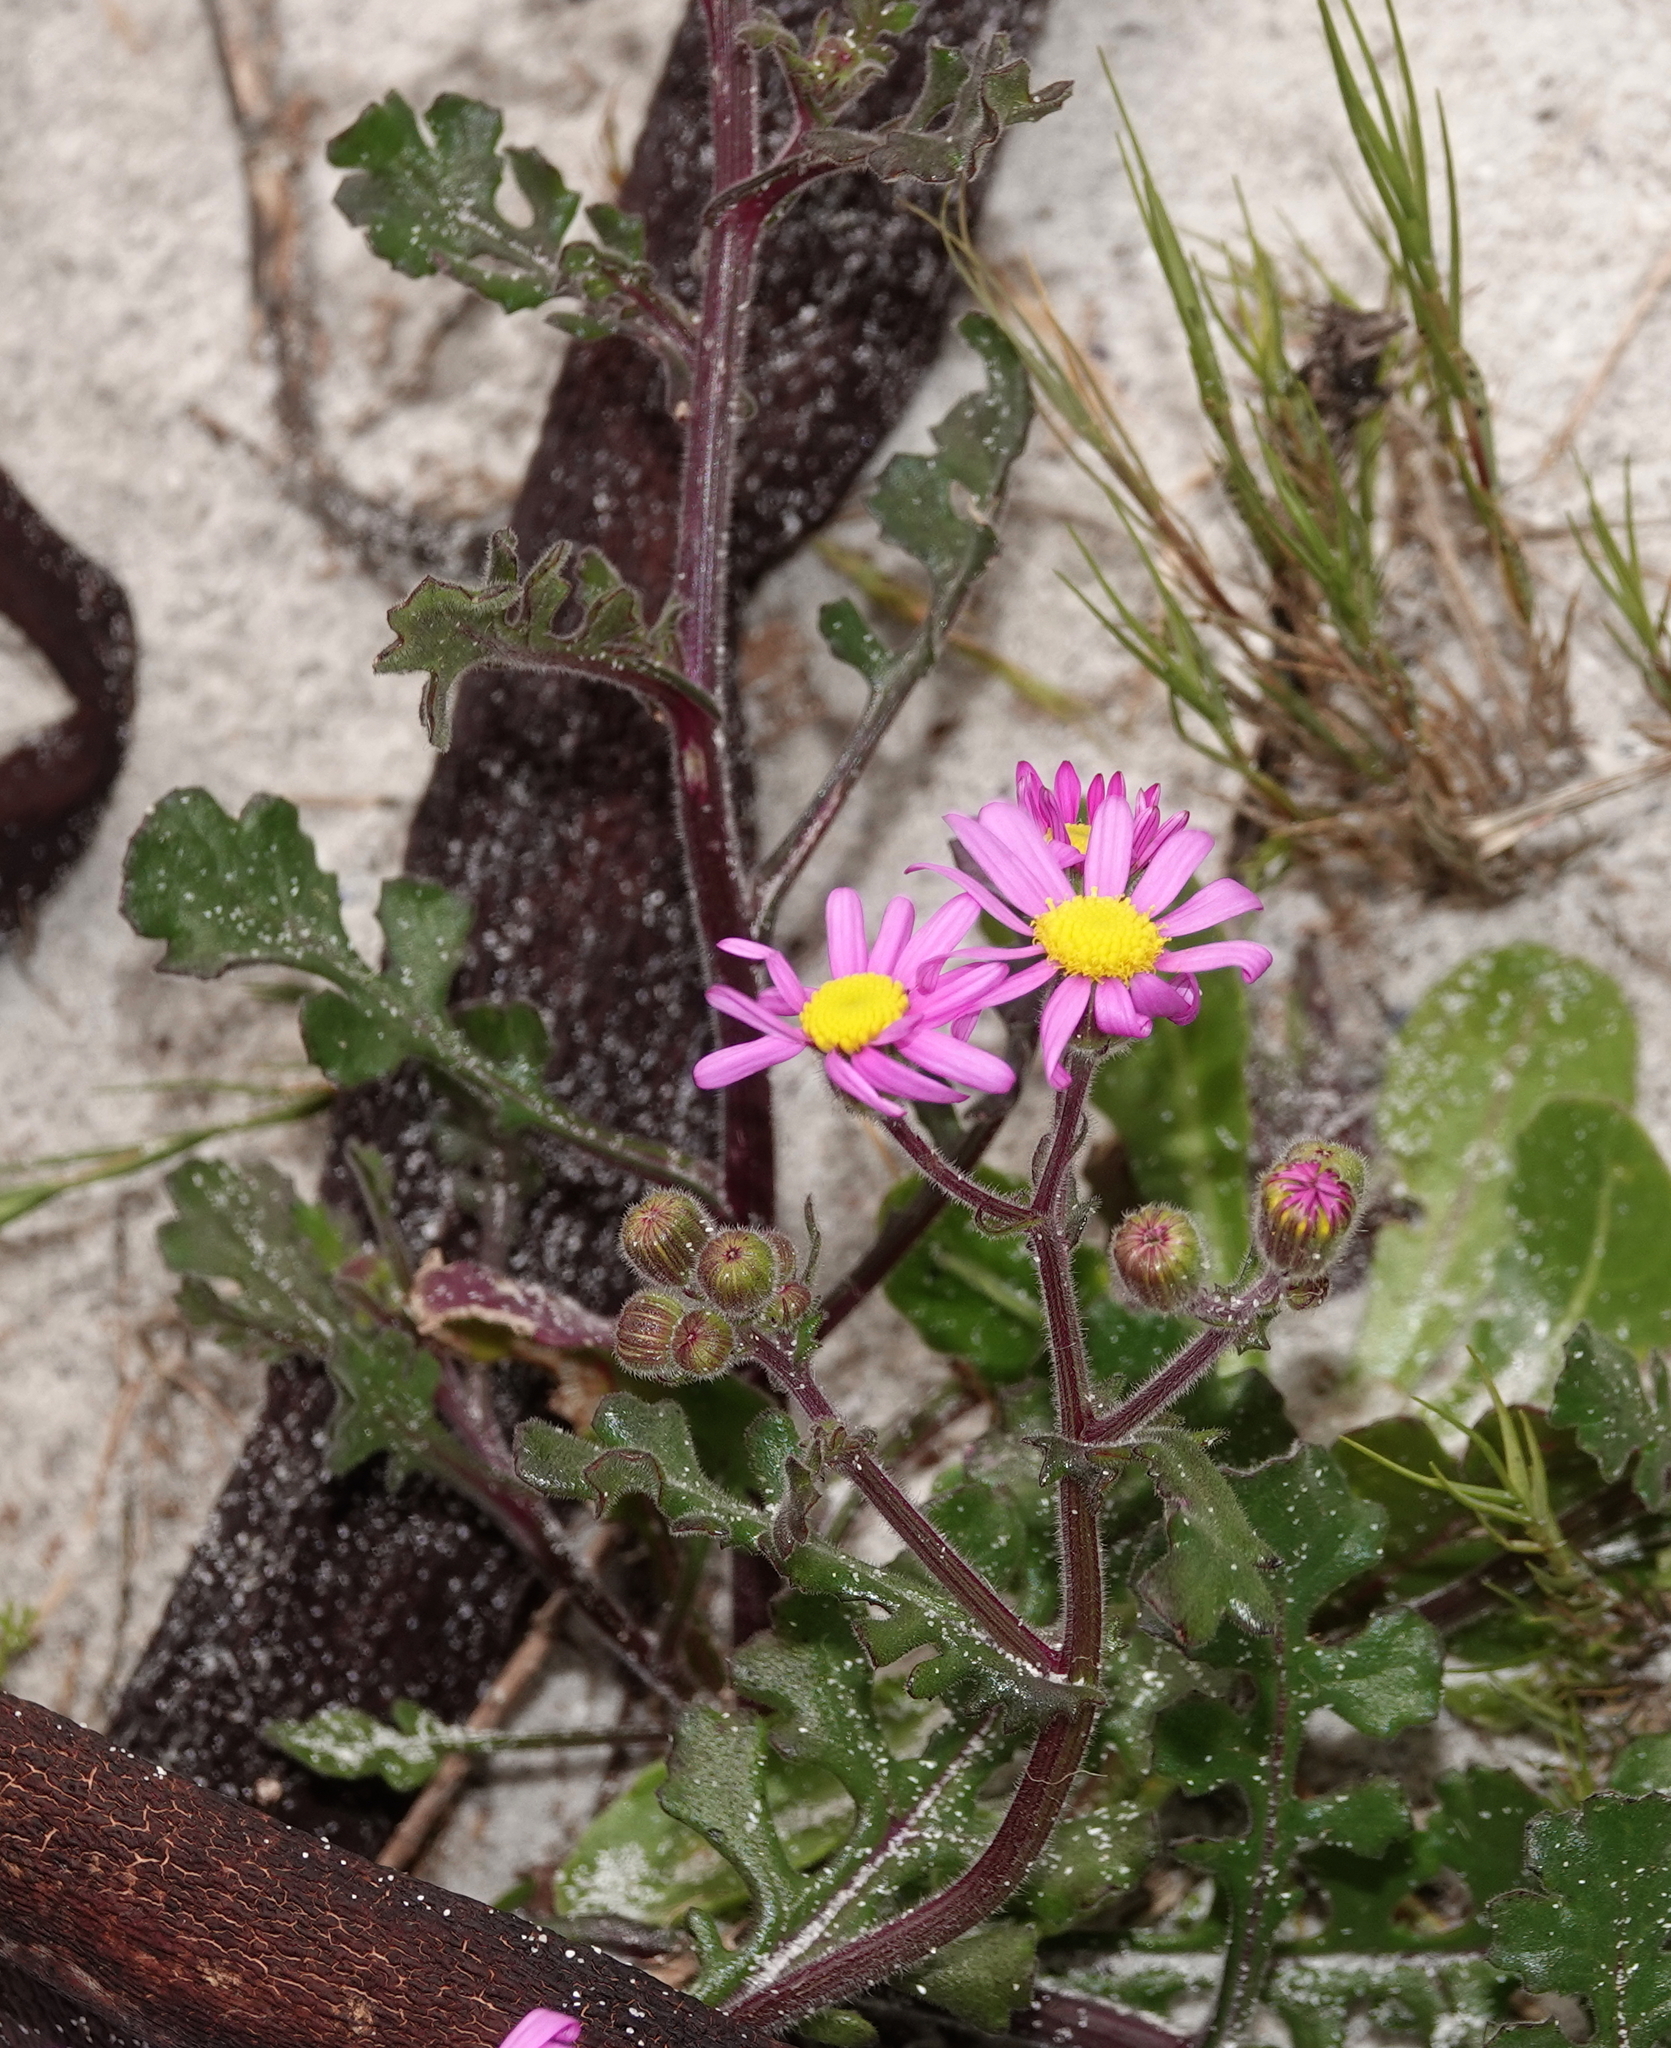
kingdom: Plantae
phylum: Tracheophyta
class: Magnoliopsida
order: Asterales
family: Asteraceae
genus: Senecio
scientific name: Senecio arenarius
